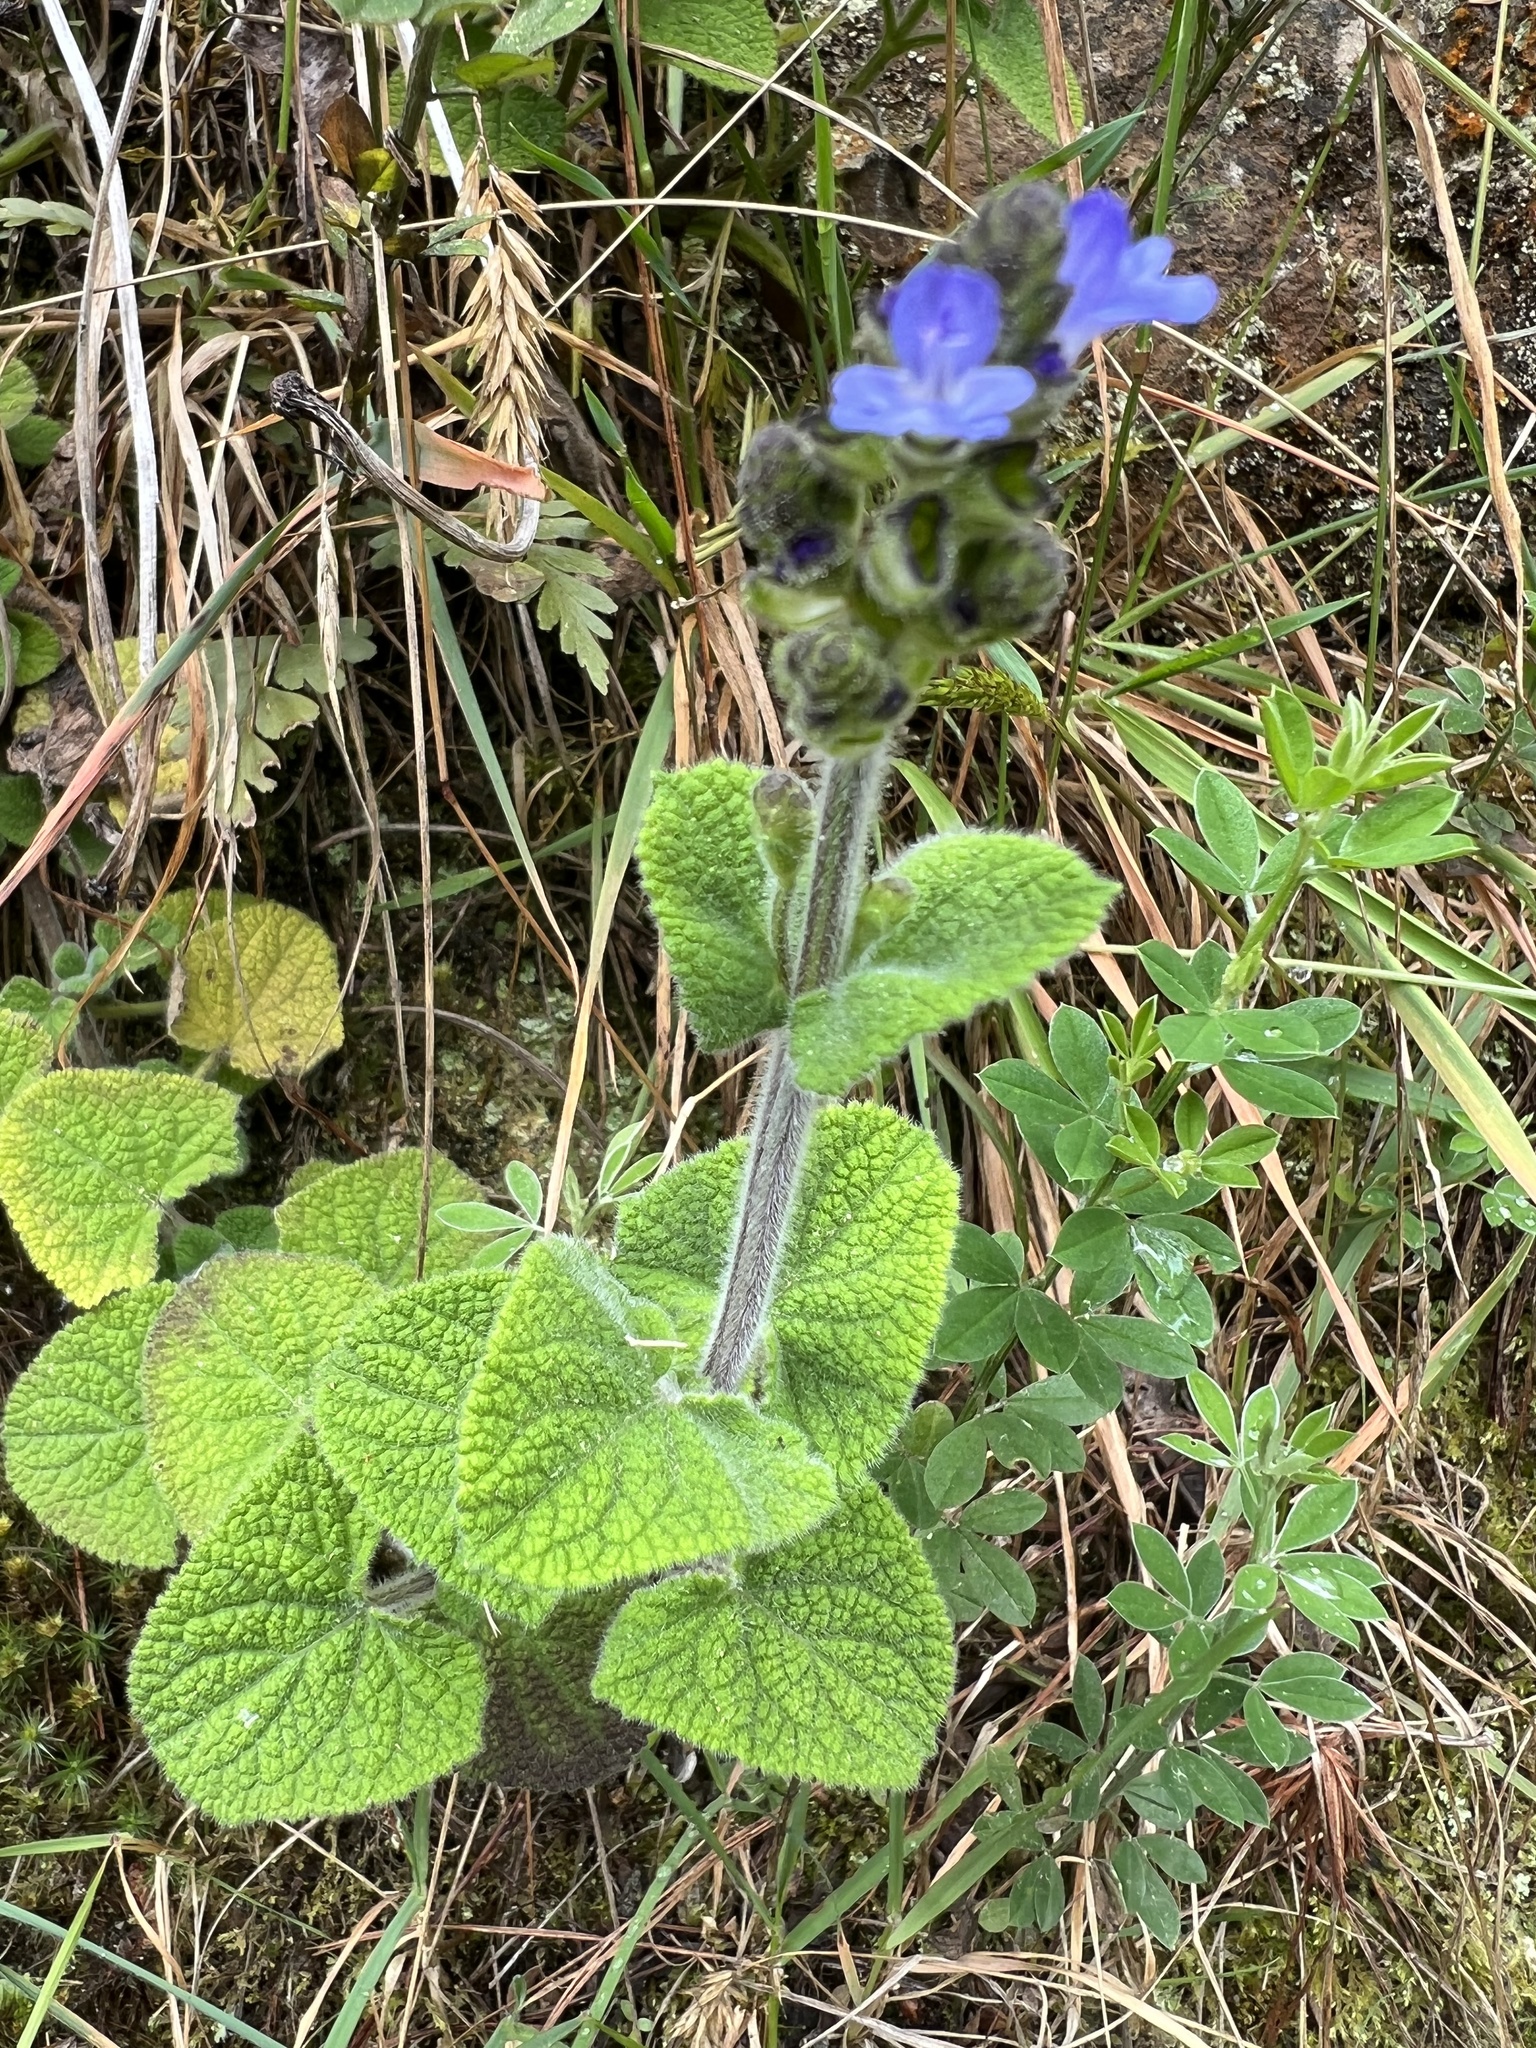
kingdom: Plantae
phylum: Tracheophyta
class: Magnoliopsida
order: Lamiales
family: Lamiaceae
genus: Salvia
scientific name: Salvia palifolia
